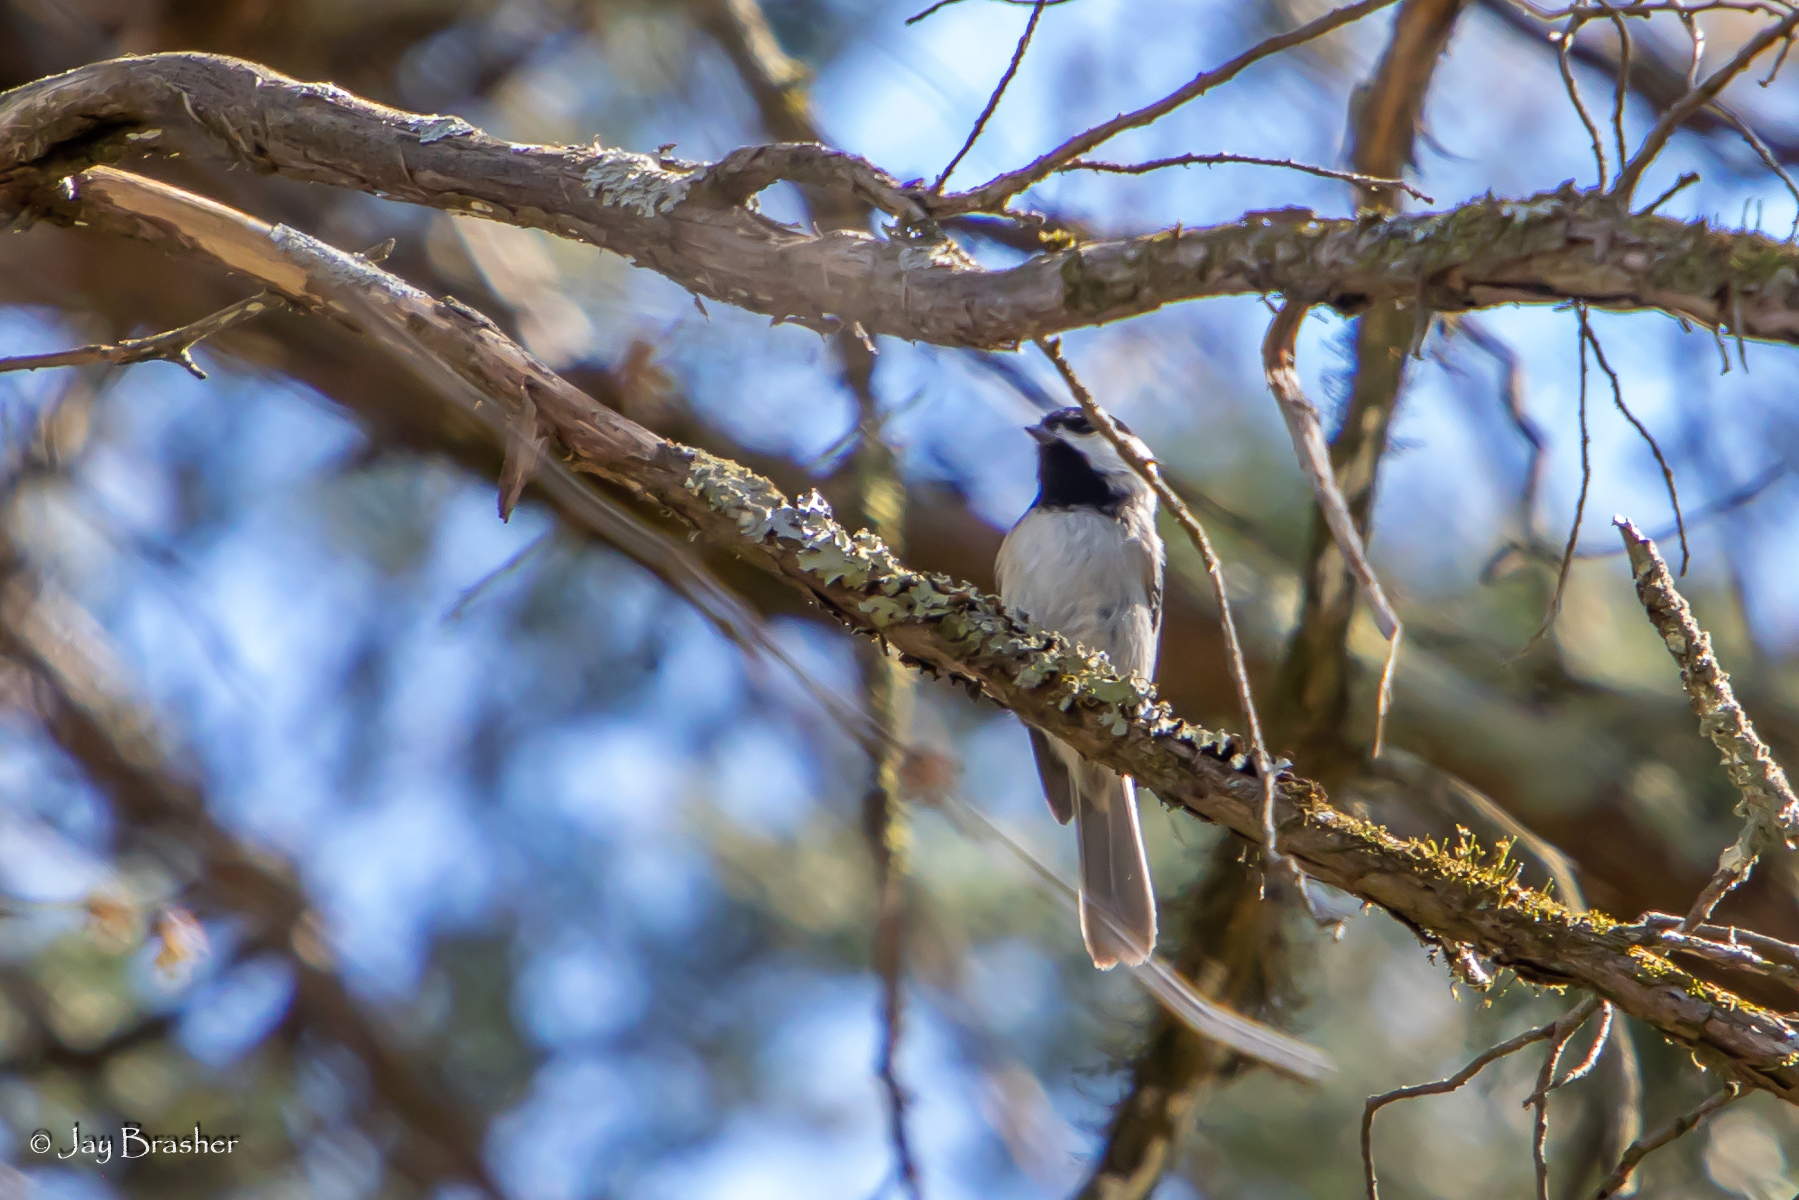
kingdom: Animalia
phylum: Chordata
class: Aves
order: Passeriformes
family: Paridae
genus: Poecile
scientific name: Poecile carolinensis
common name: Carolina chickadee
